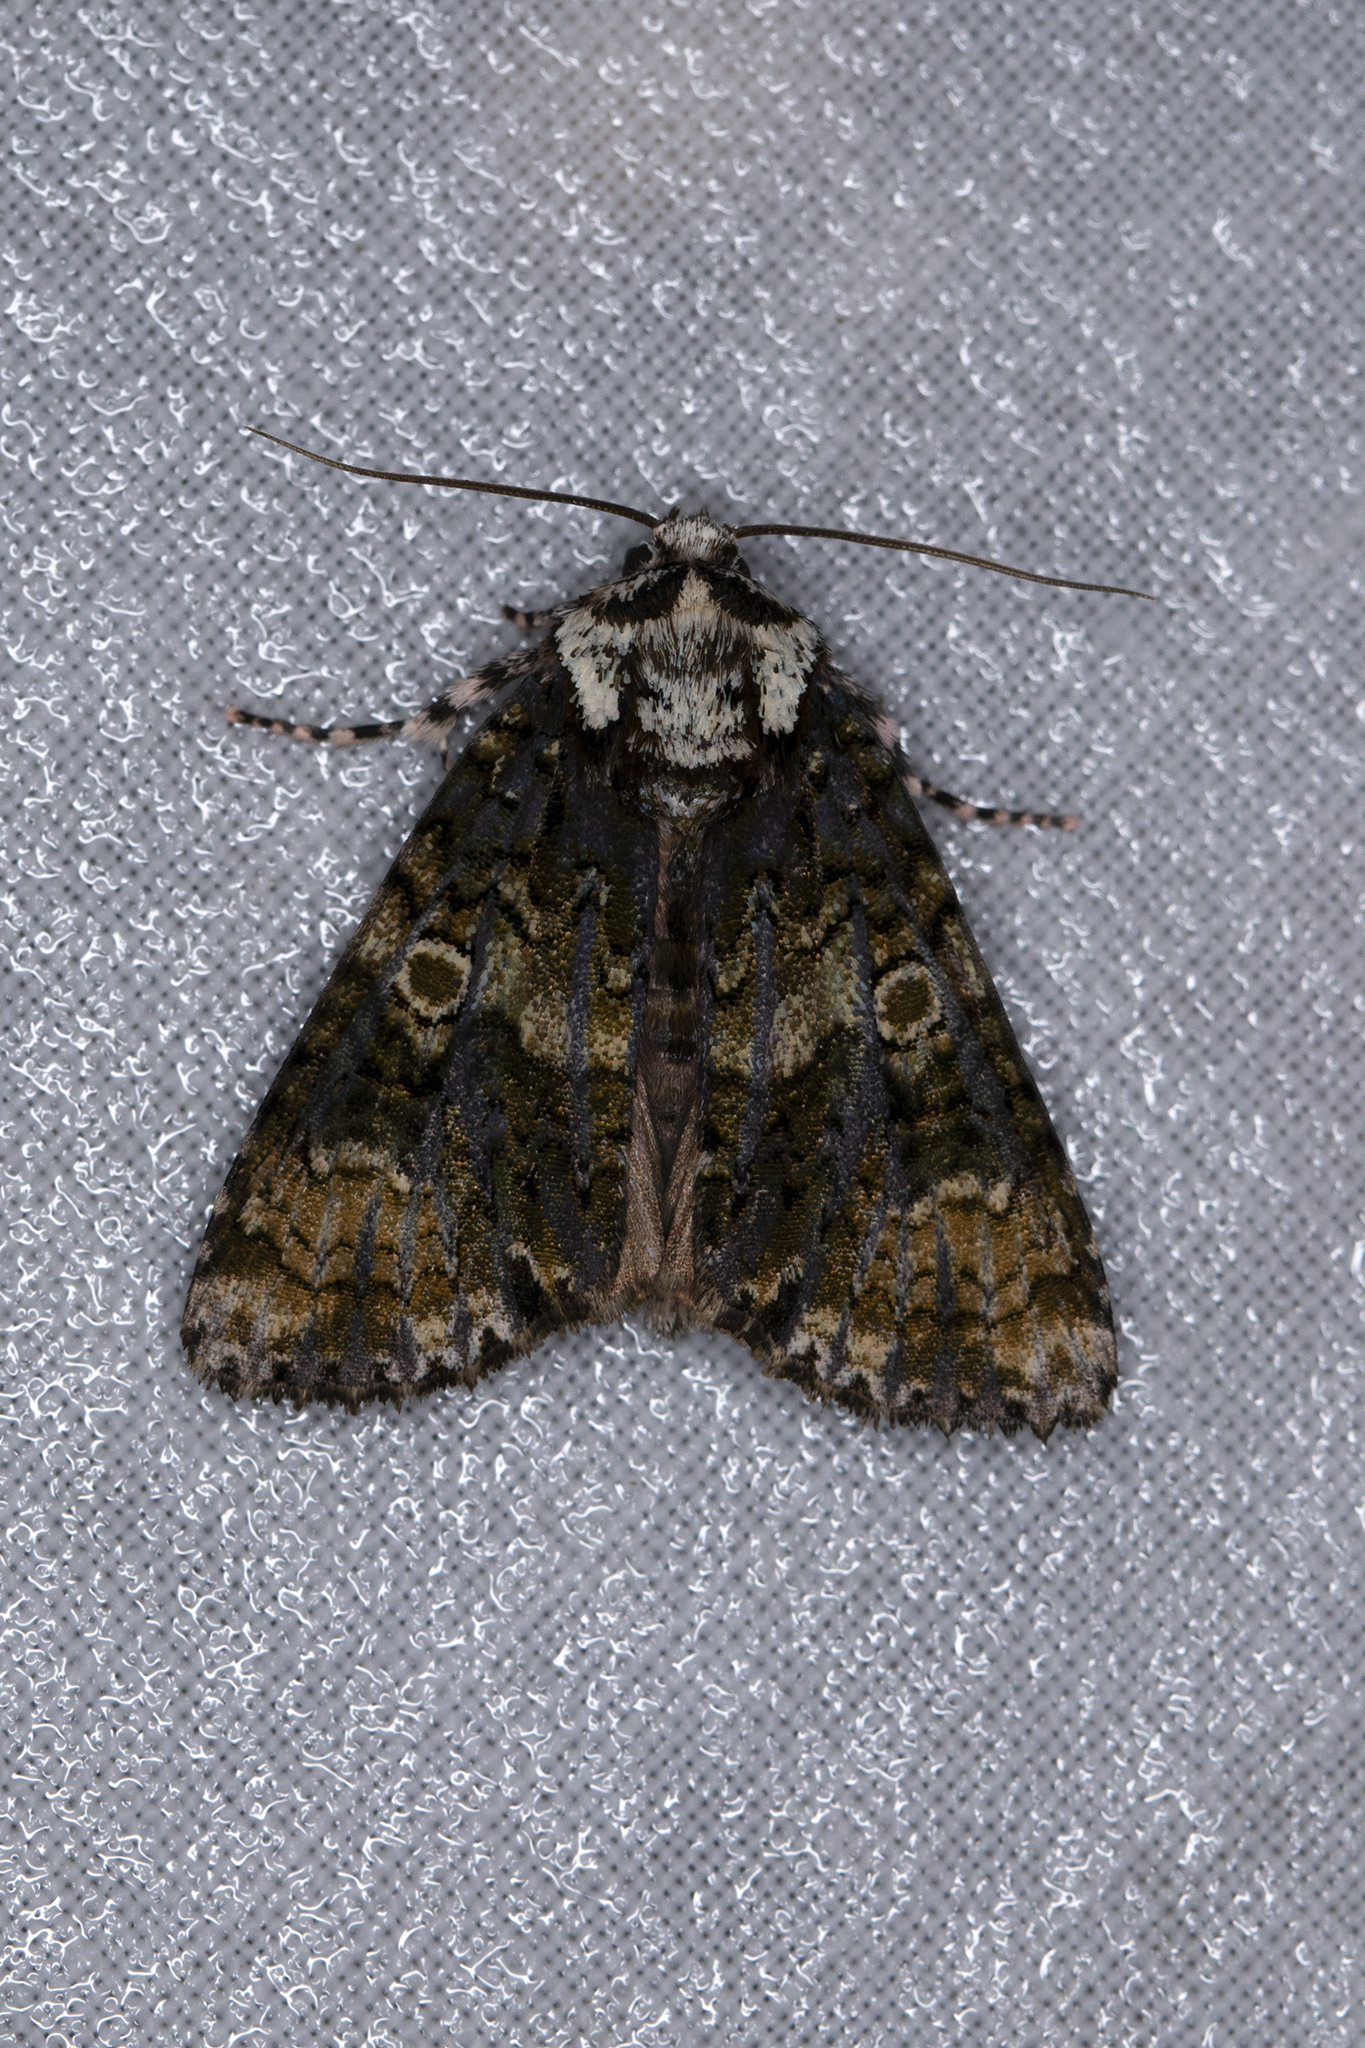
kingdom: Animalia
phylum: Arthropoda
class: Insecta
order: Lepidoptera
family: Noctuidae
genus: Craniophora
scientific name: Craniophora ligustri
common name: Coronet
